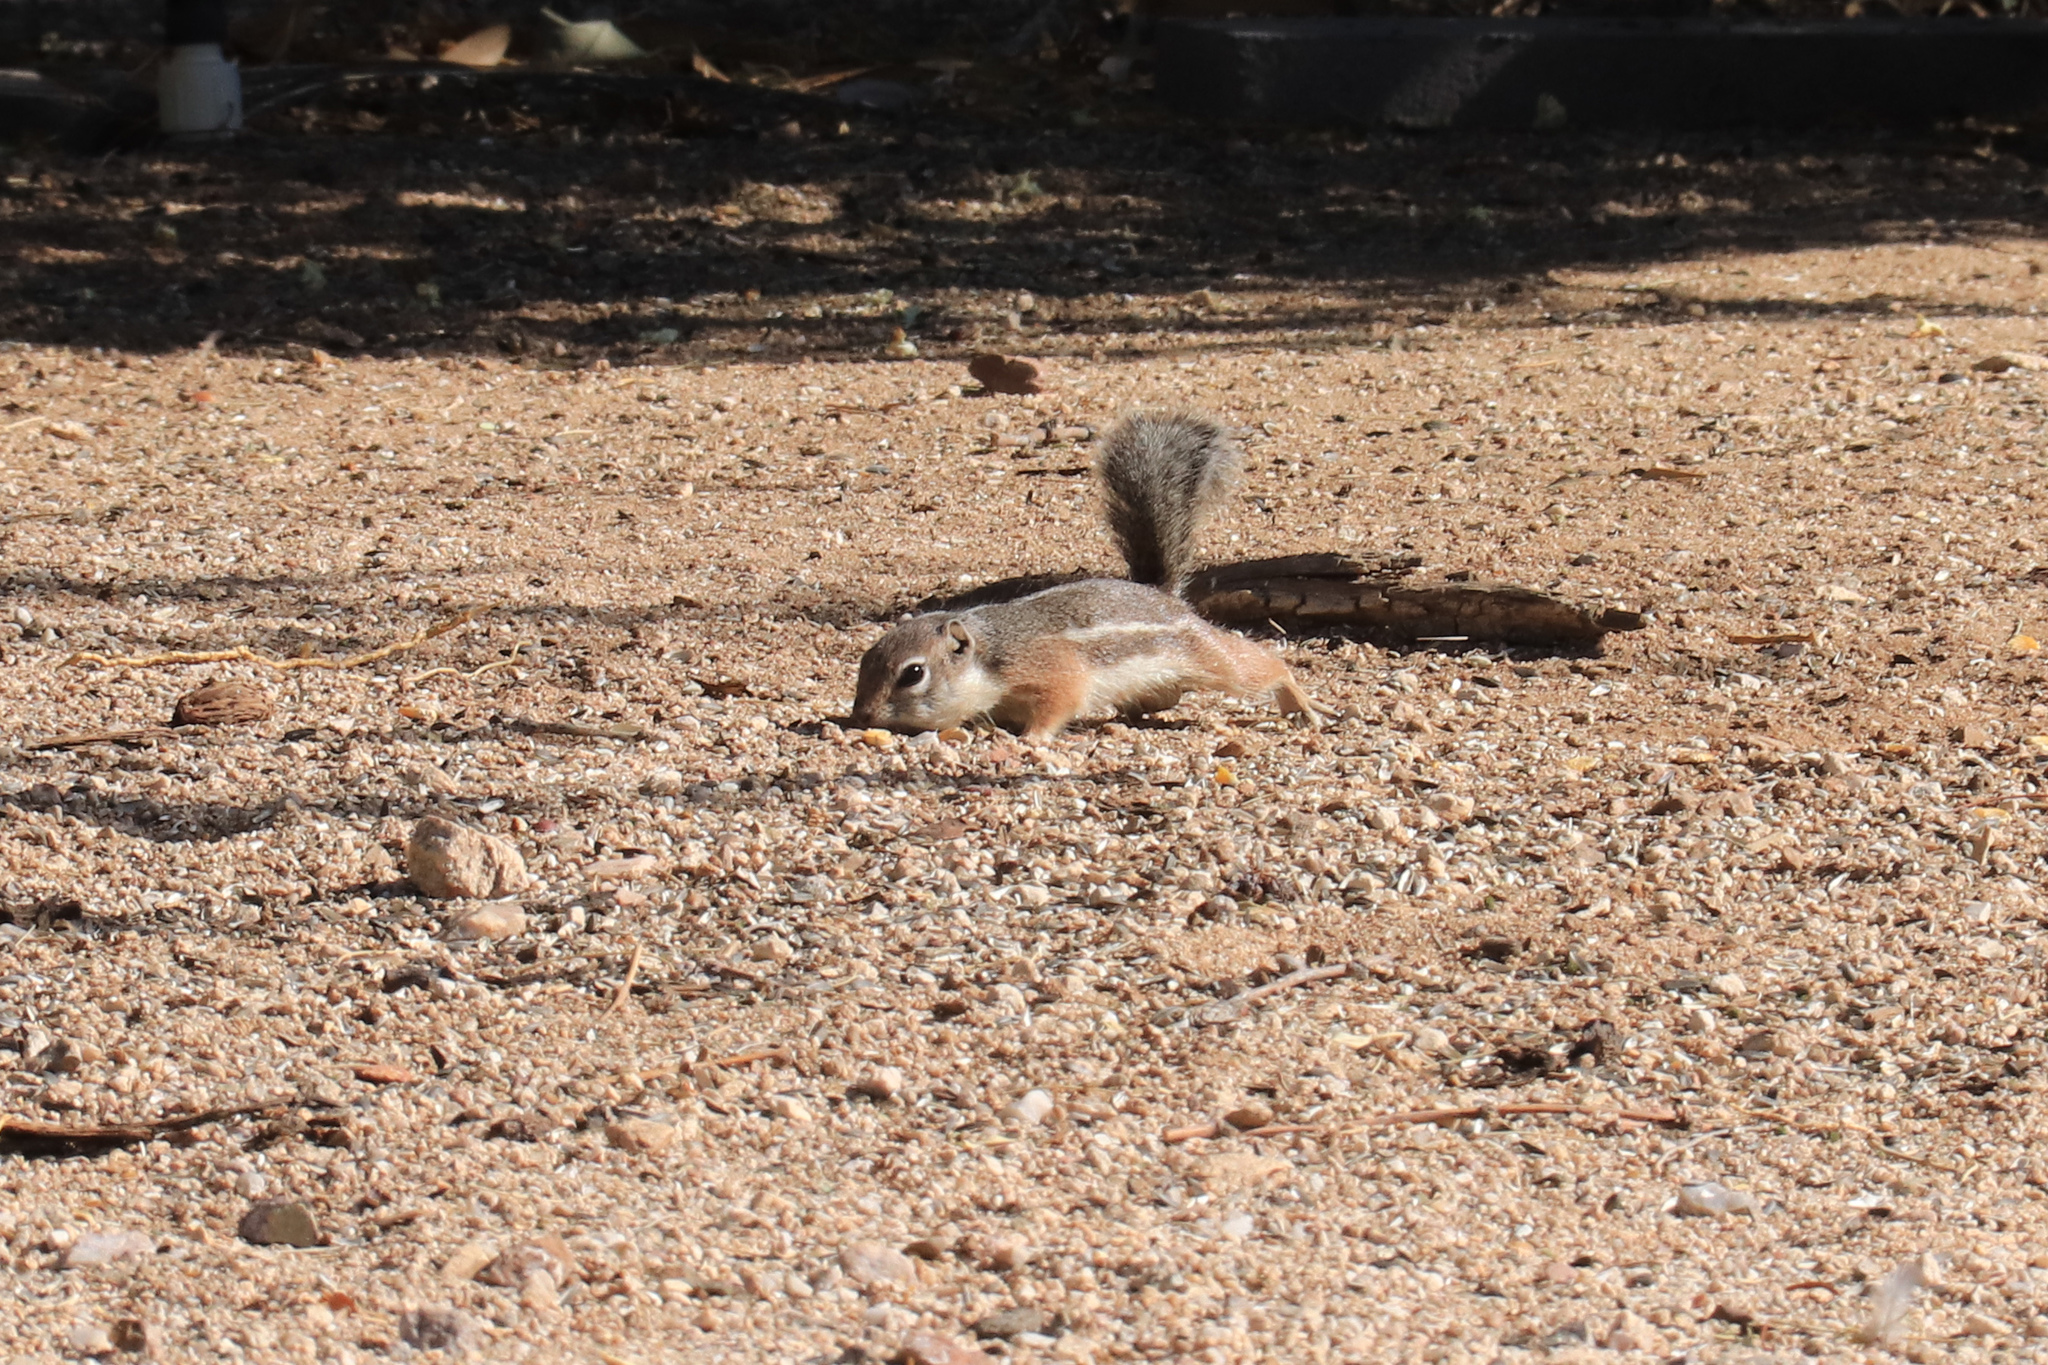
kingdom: Animalia
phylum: Chordata
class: Mammalia
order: Rodentia
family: Sciuridae
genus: Ammospermophilus
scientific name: Ammospermophilus harrisii
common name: Harris's antelope squirrel
